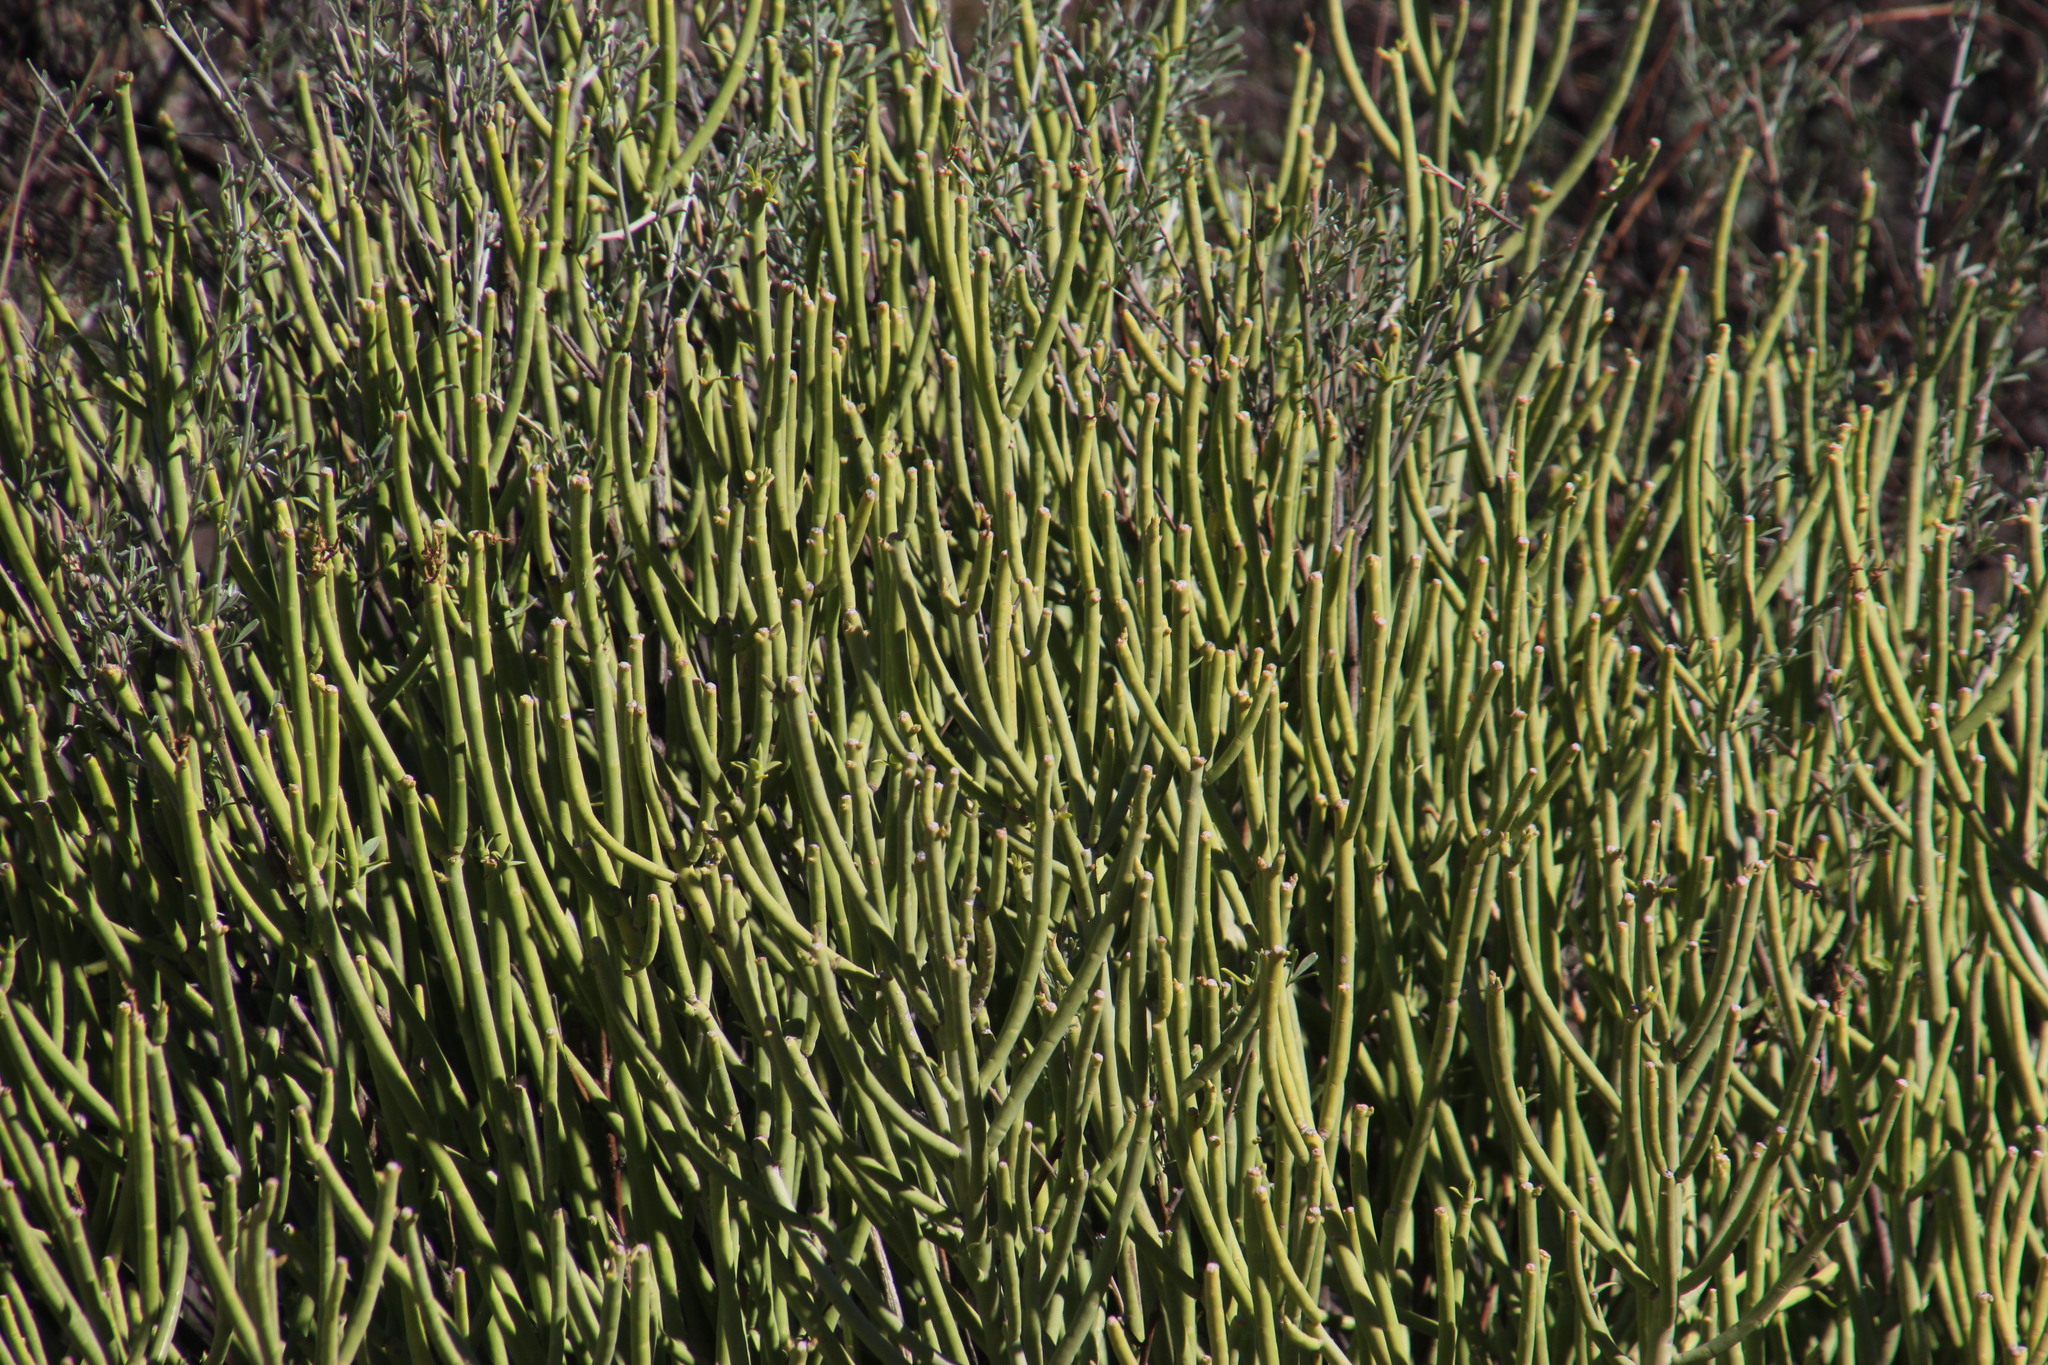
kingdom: Plantae
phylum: Tracheophyta
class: Magnoliopsida
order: Malpighiales
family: Euphorbiaceae
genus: Euphorbia
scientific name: Euphorbia mauritanica
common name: Jackal's-food
